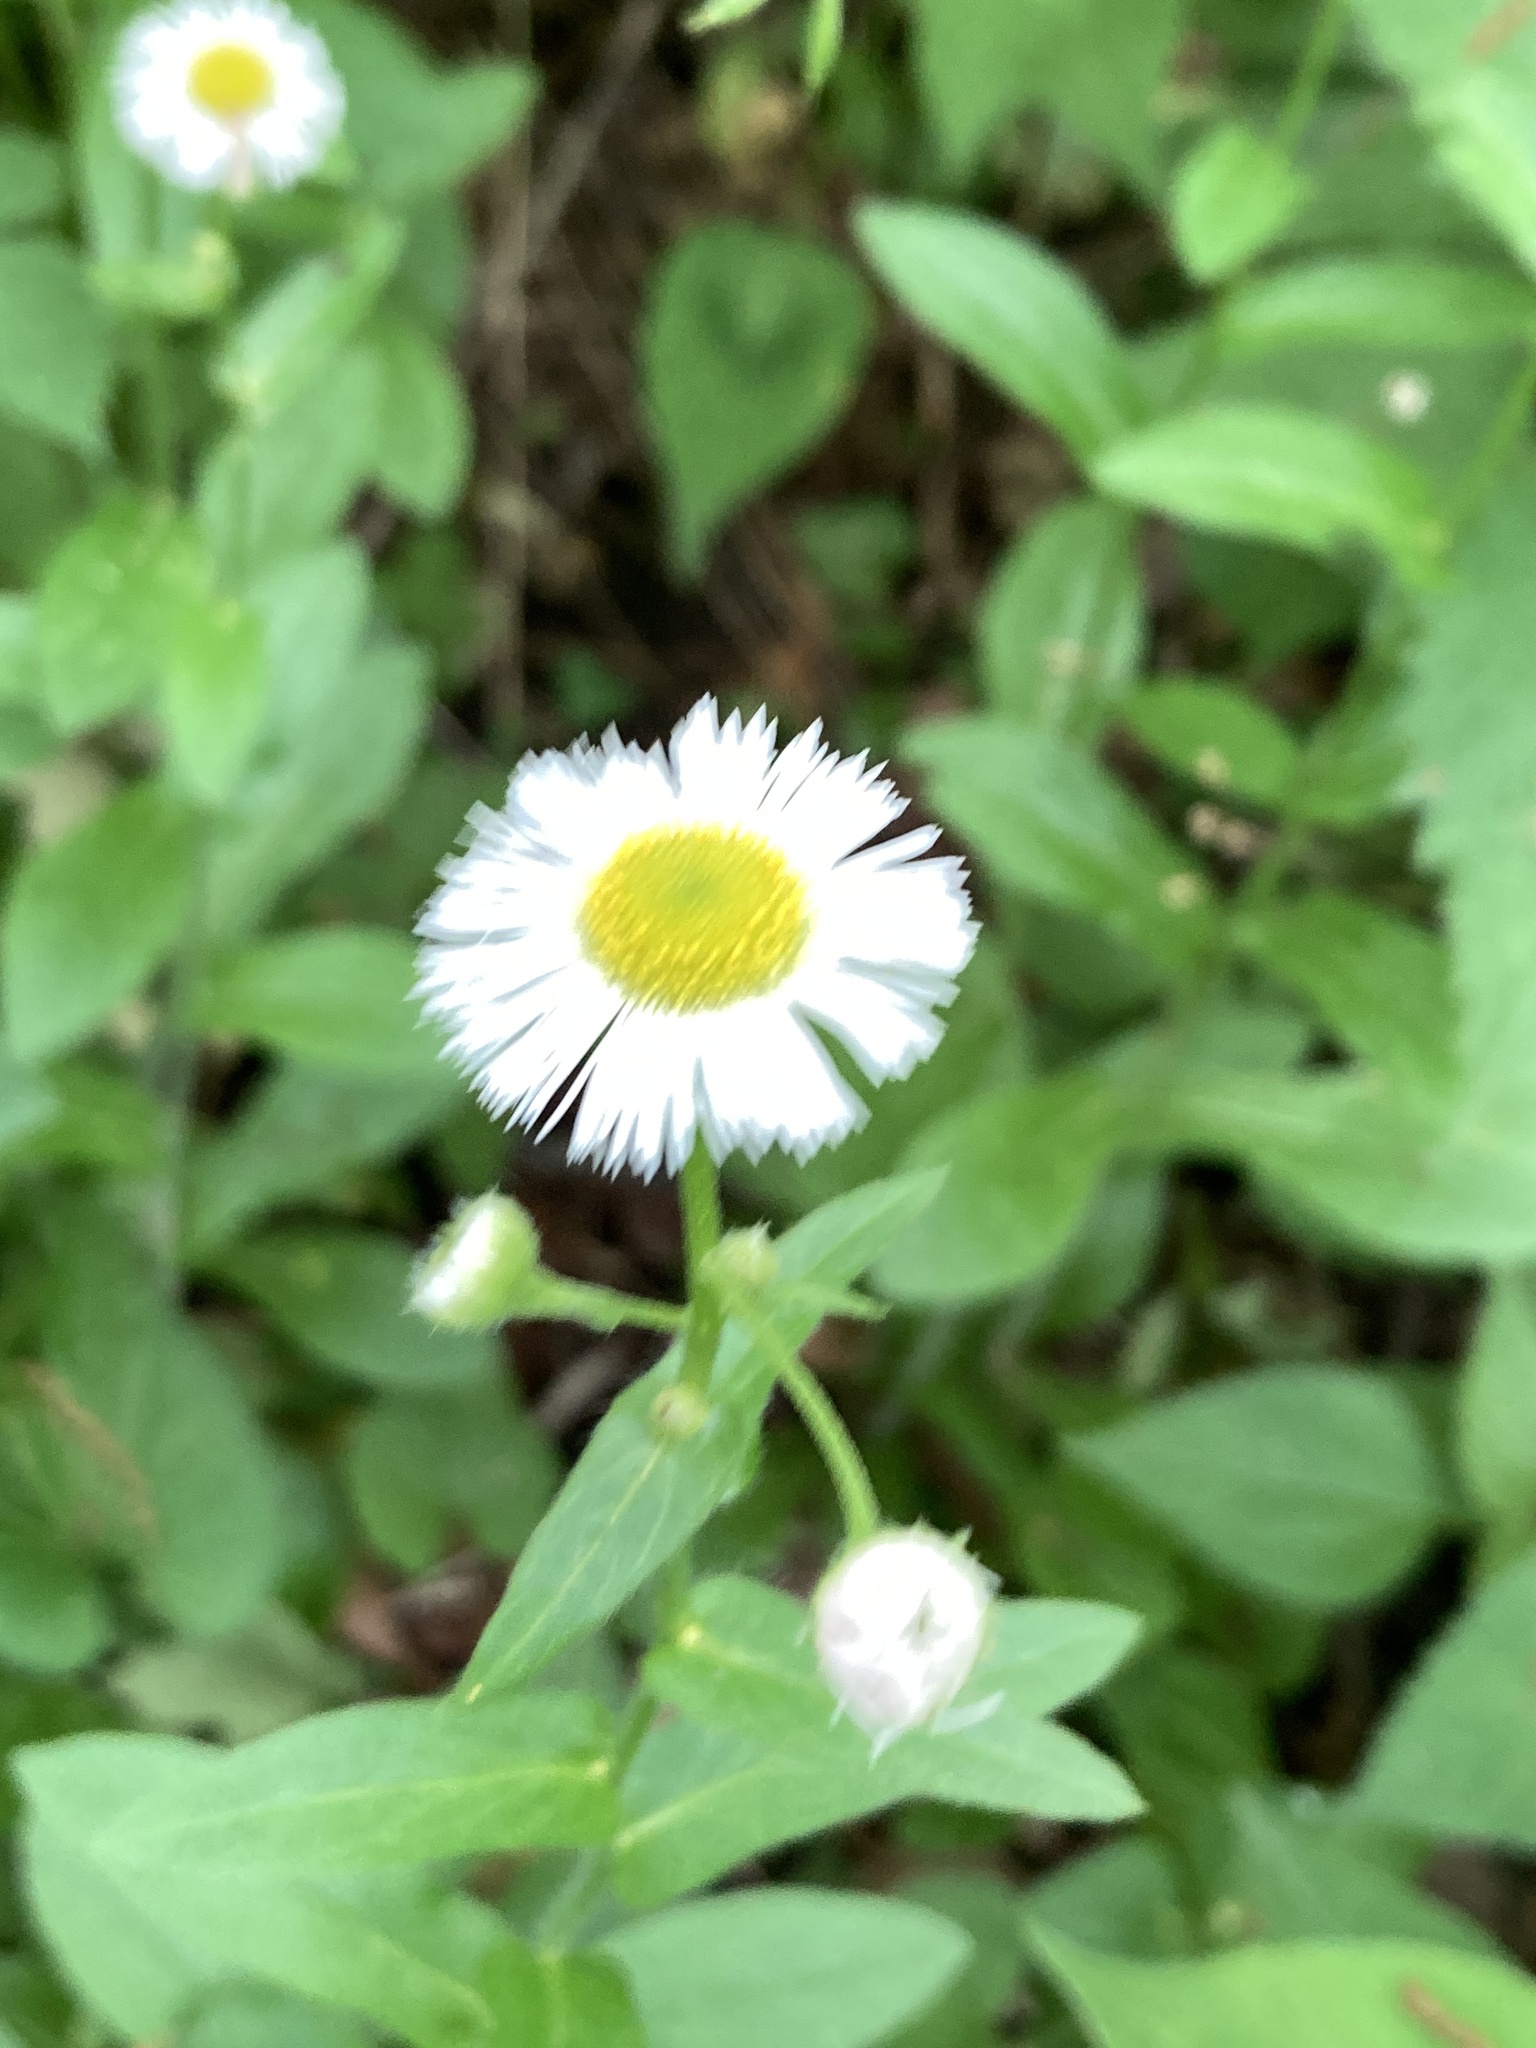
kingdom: Plantae
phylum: Tracheophyta
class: Magnoliopsida
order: Asterales
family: Asteraceae
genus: Erigeron
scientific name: Erigeron philadelphicus
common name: Robin's-plantain
